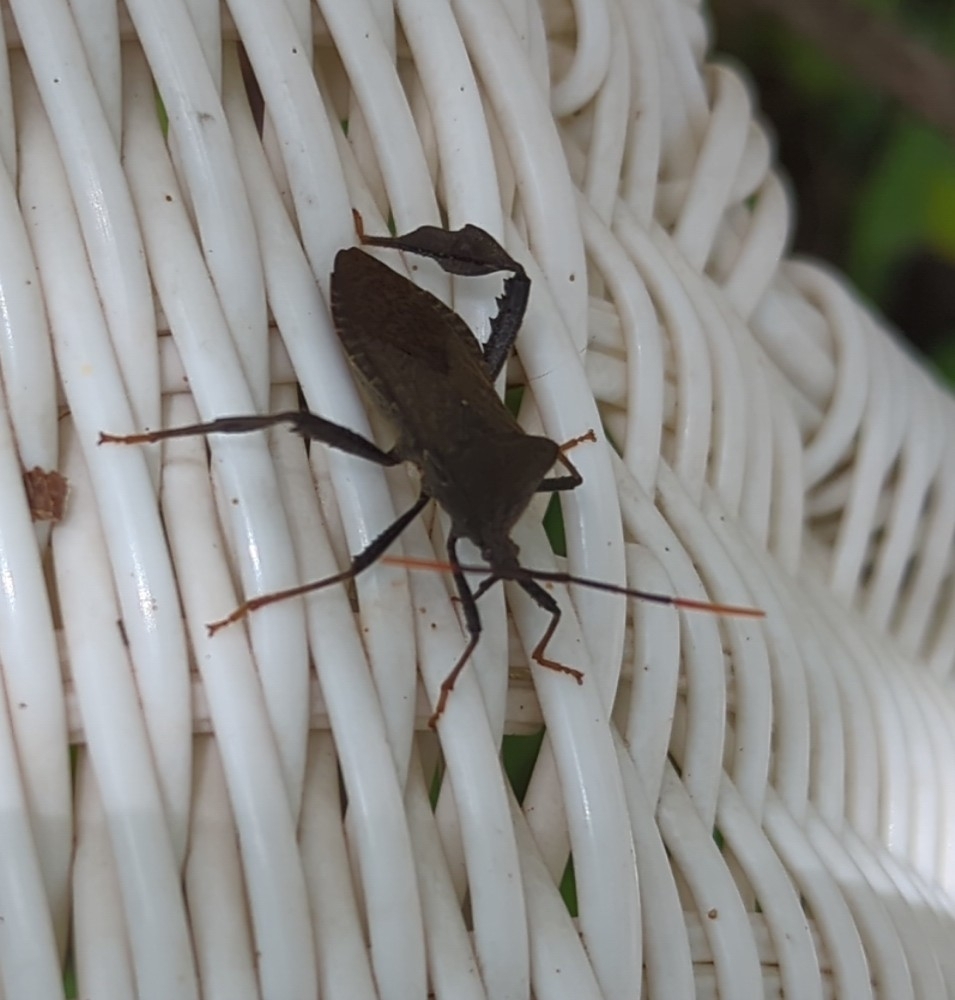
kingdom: Animalia
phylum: Arthropoda
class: Insecta
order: Hemiptera
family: Coreidae
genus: Acanthocephala
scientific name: Acanthocephala terminalis
